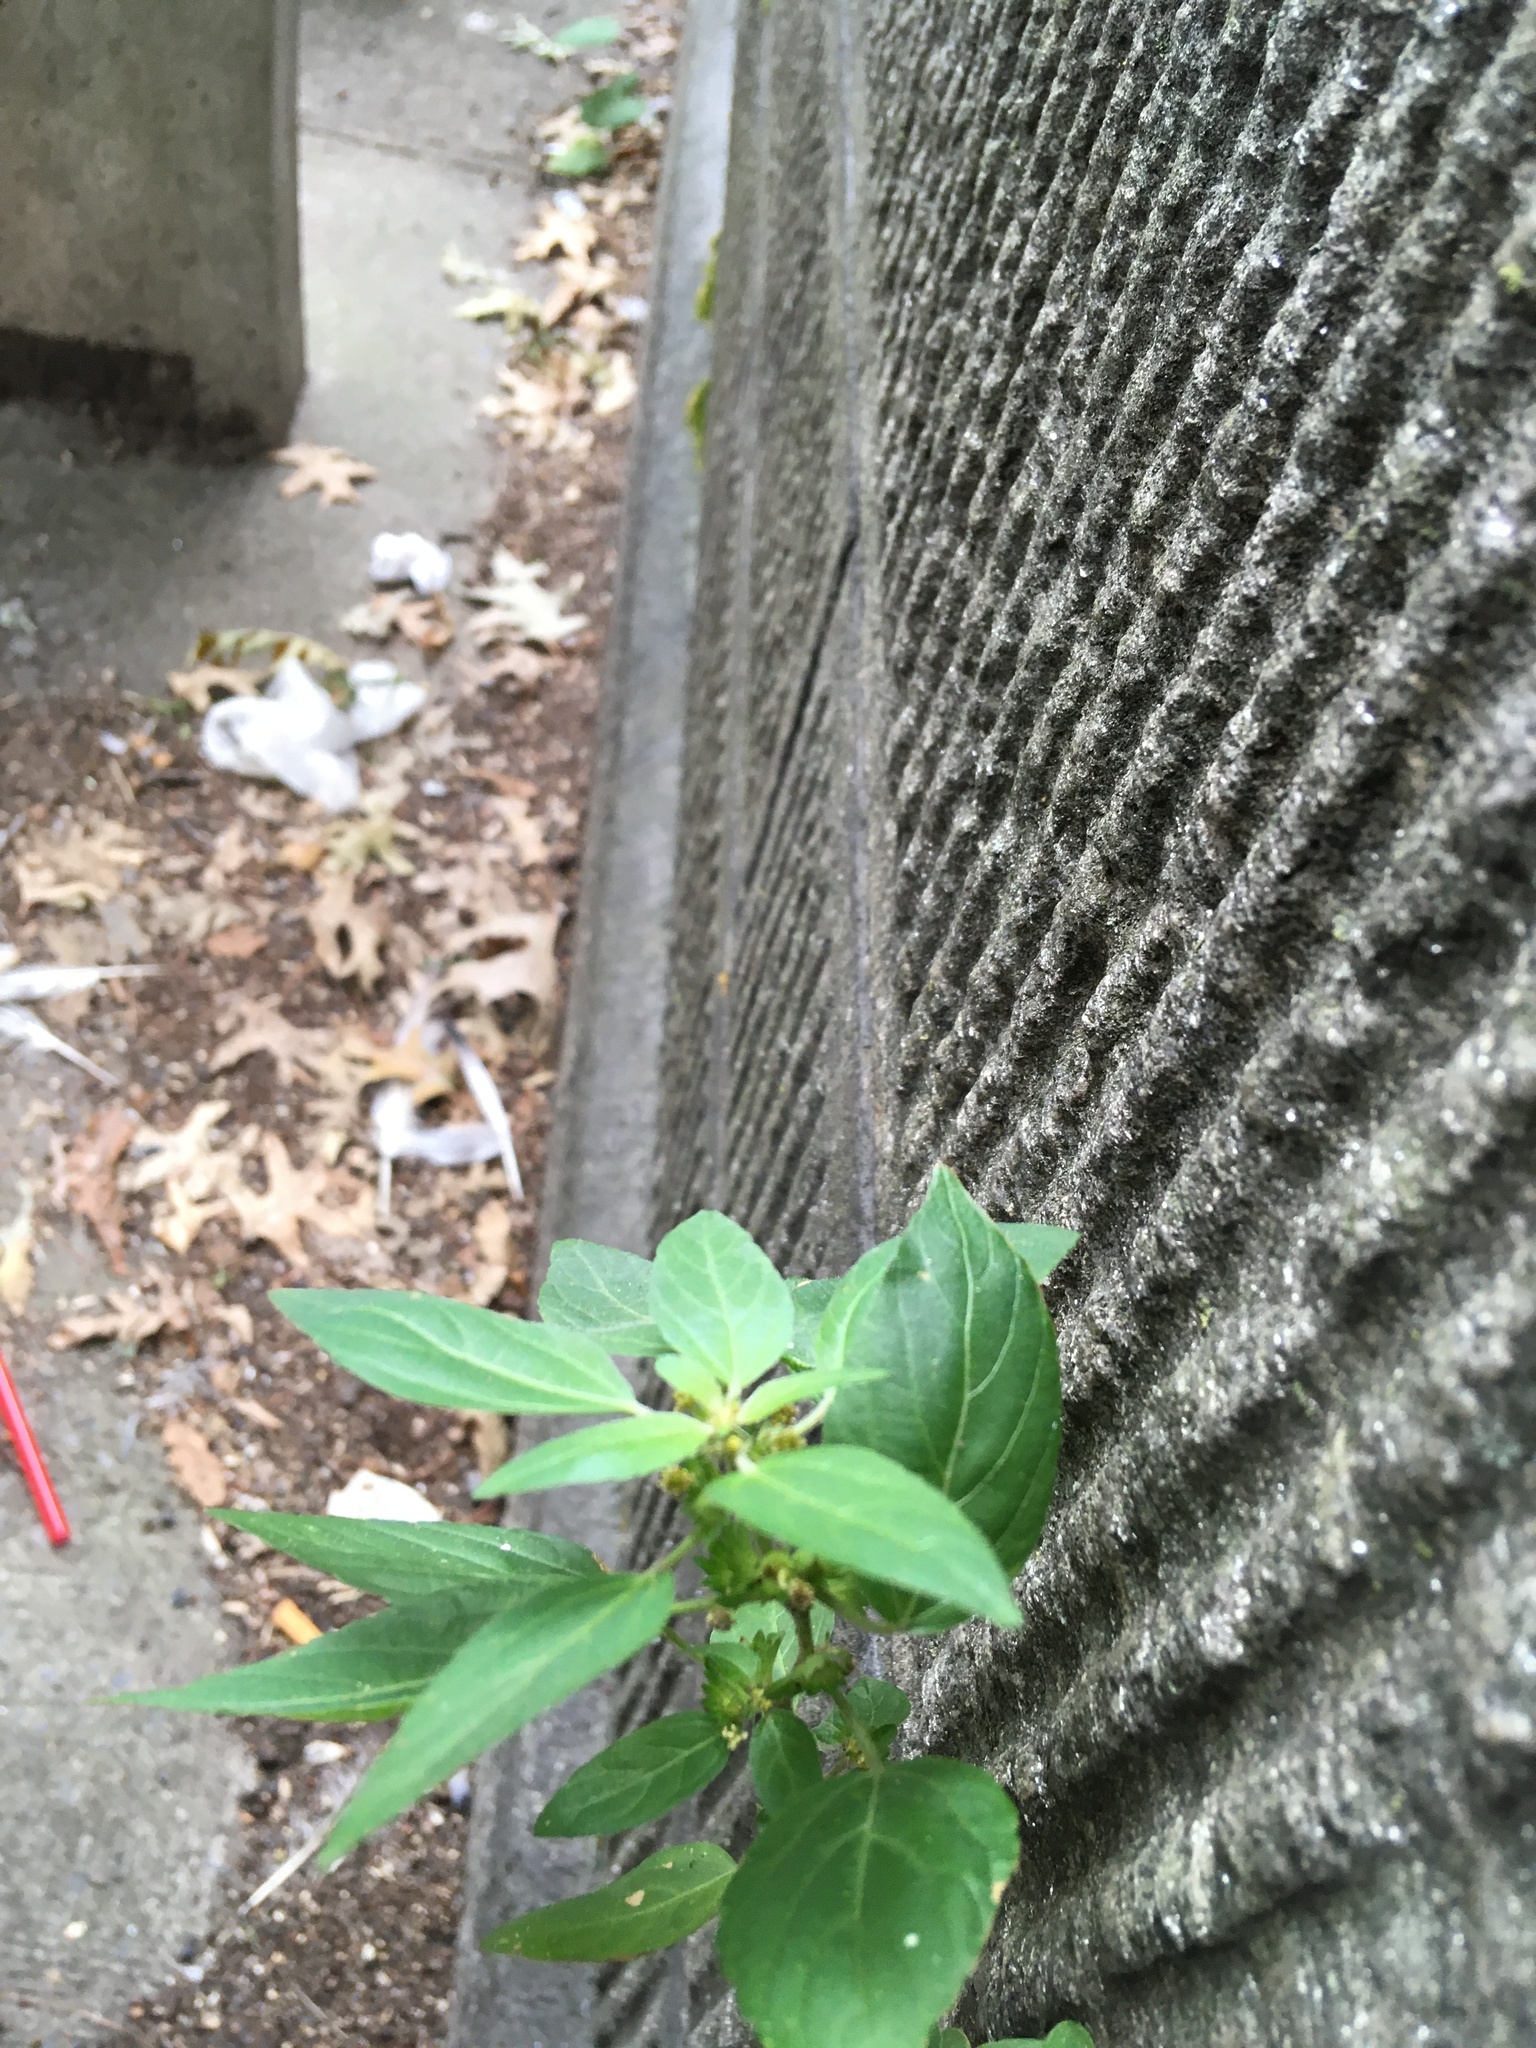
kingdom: Plantae
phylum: Tracheophyta
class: Magnoliopsida
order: Malpighiales
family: Euphorbiaceae
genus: Acalypha
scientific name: Acalypha rhomboidea
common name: Rhombic copperleaf
